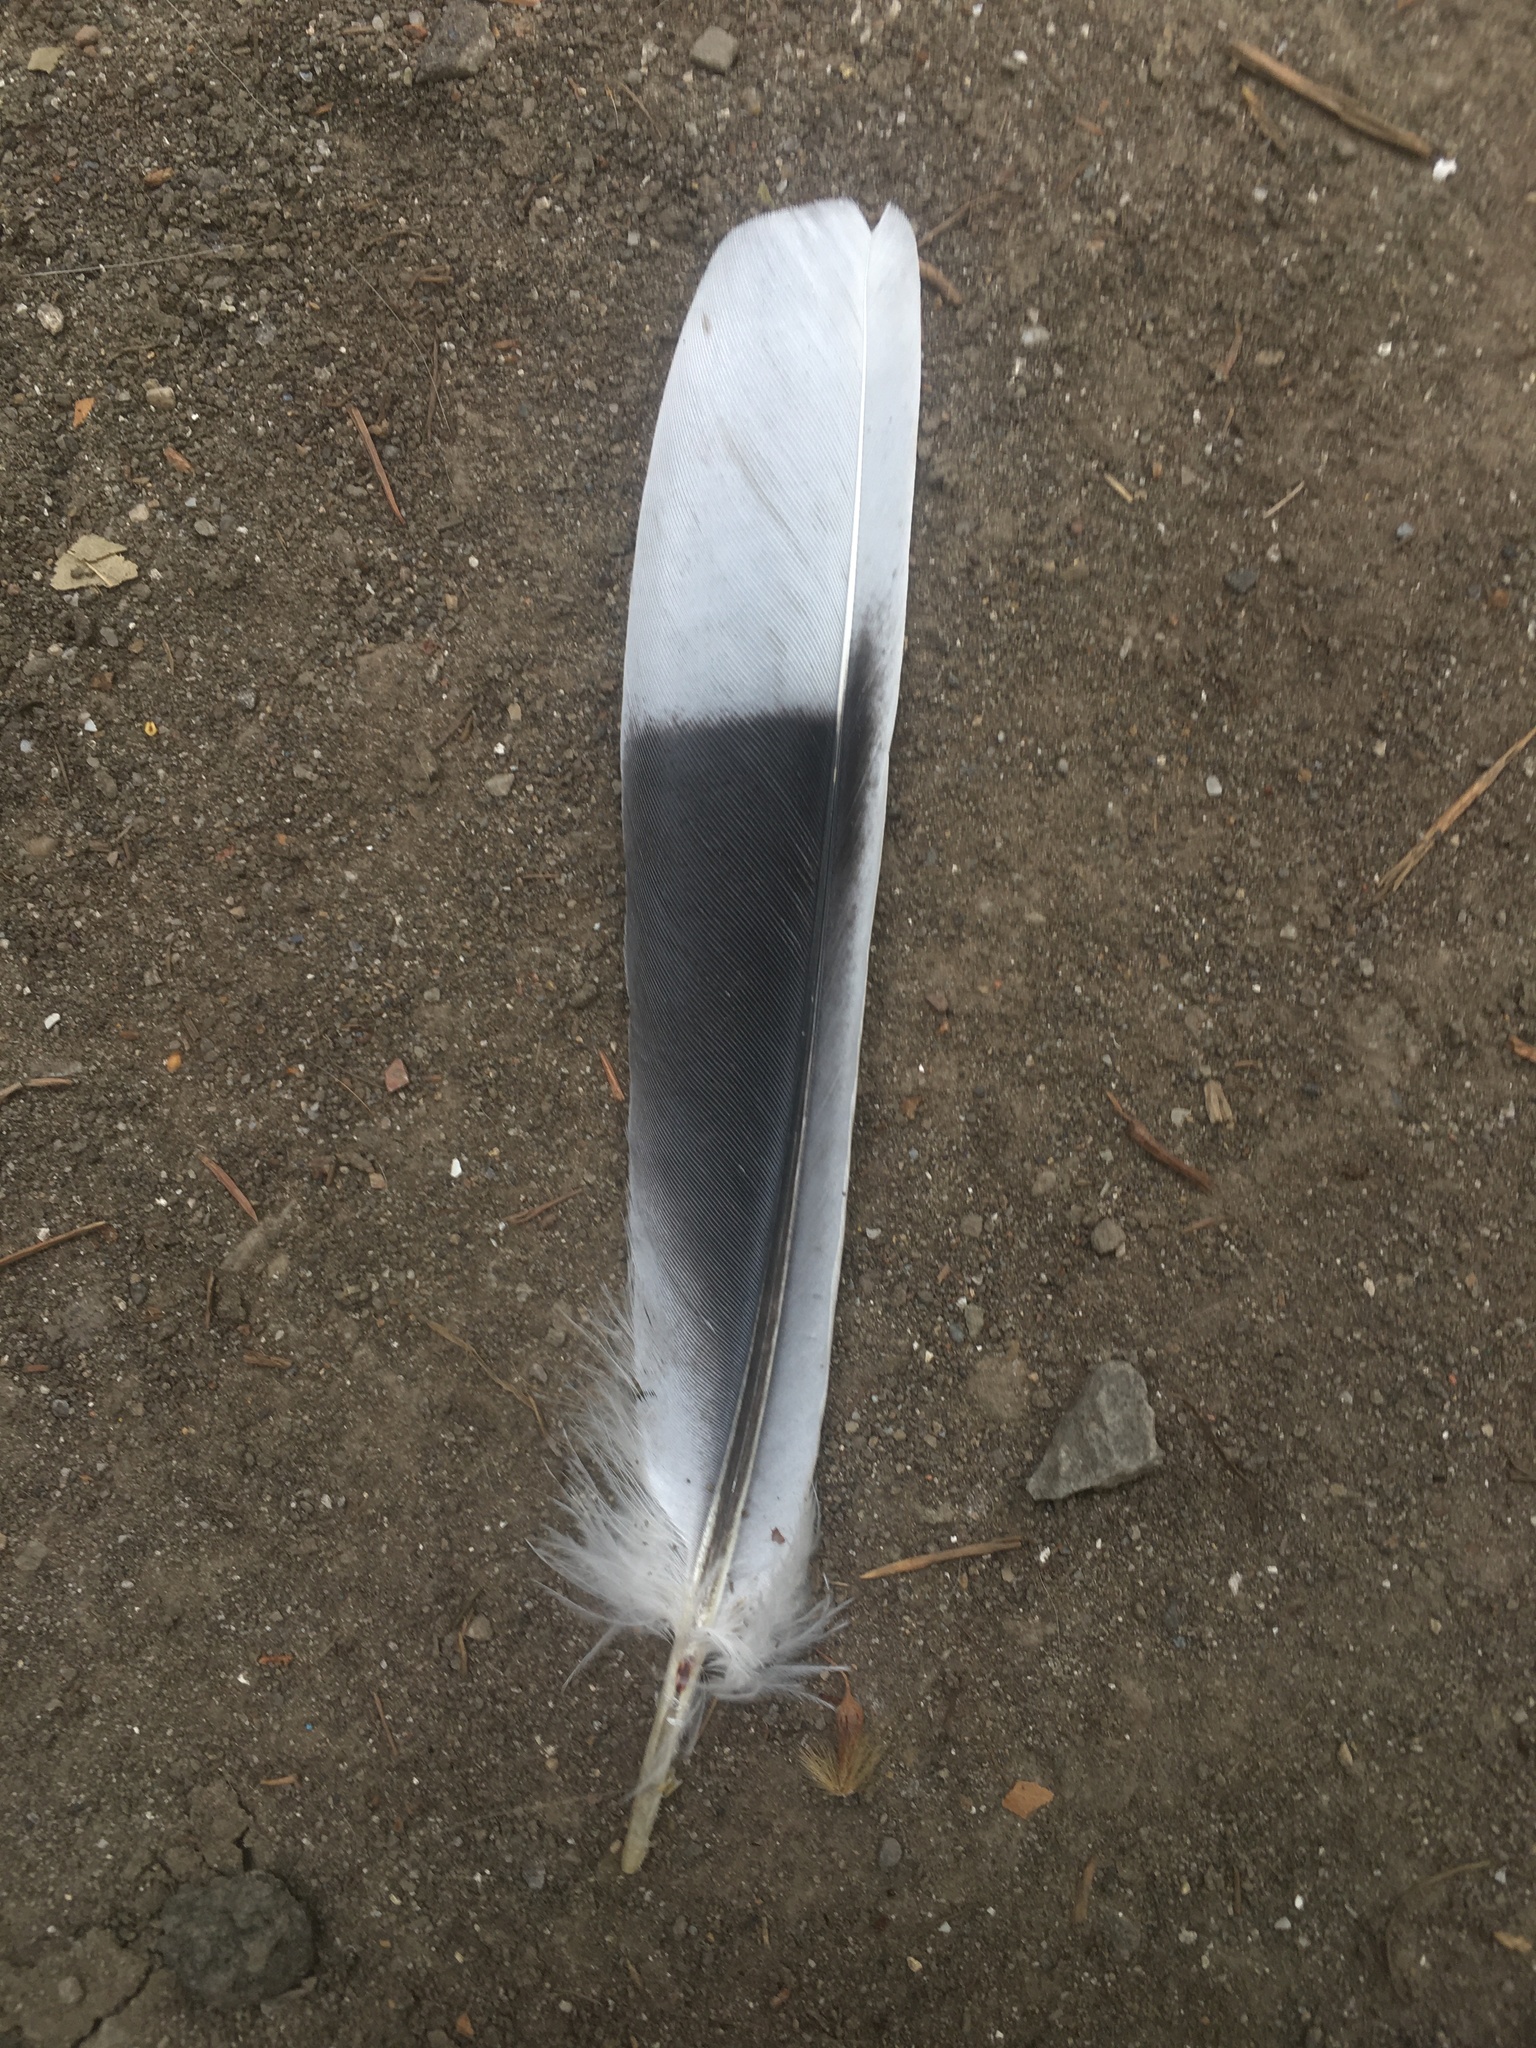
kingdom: Animalia
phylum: Chordata
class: Aves
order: Columbiformes
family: Columbidae
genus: Streptopelia
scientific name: Streptopelia decaocto
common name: Eurasian collared dove
